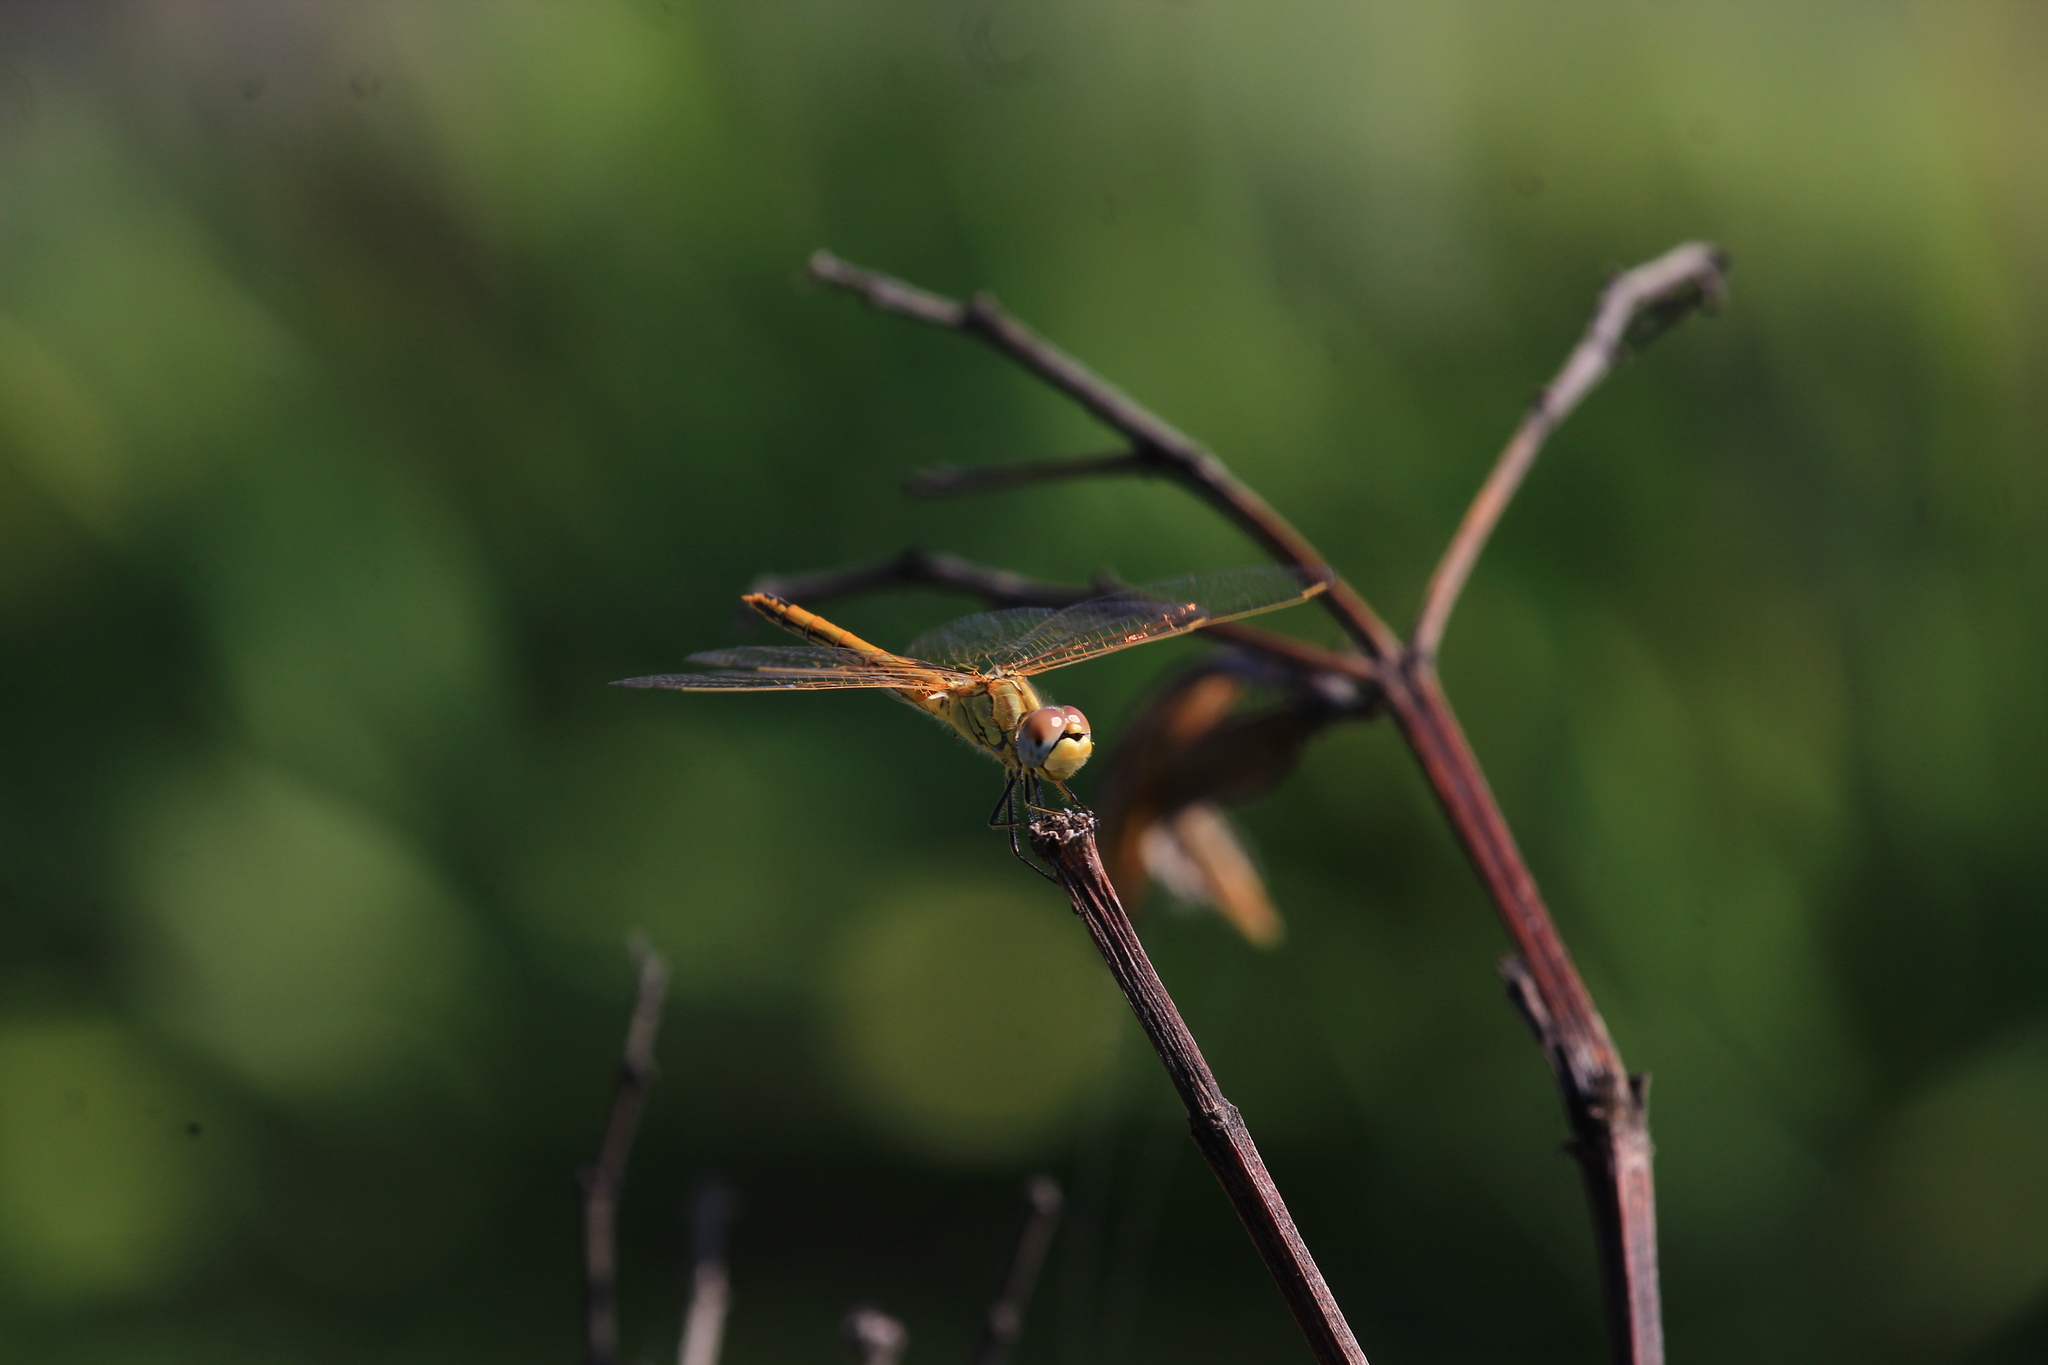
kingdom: Animalia
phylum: Arthropoda
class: Insecta
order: Odonata
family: Libellulidae
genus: Sympetrum
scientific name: Sympetrum fonscolombii
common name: Red-veined darter
